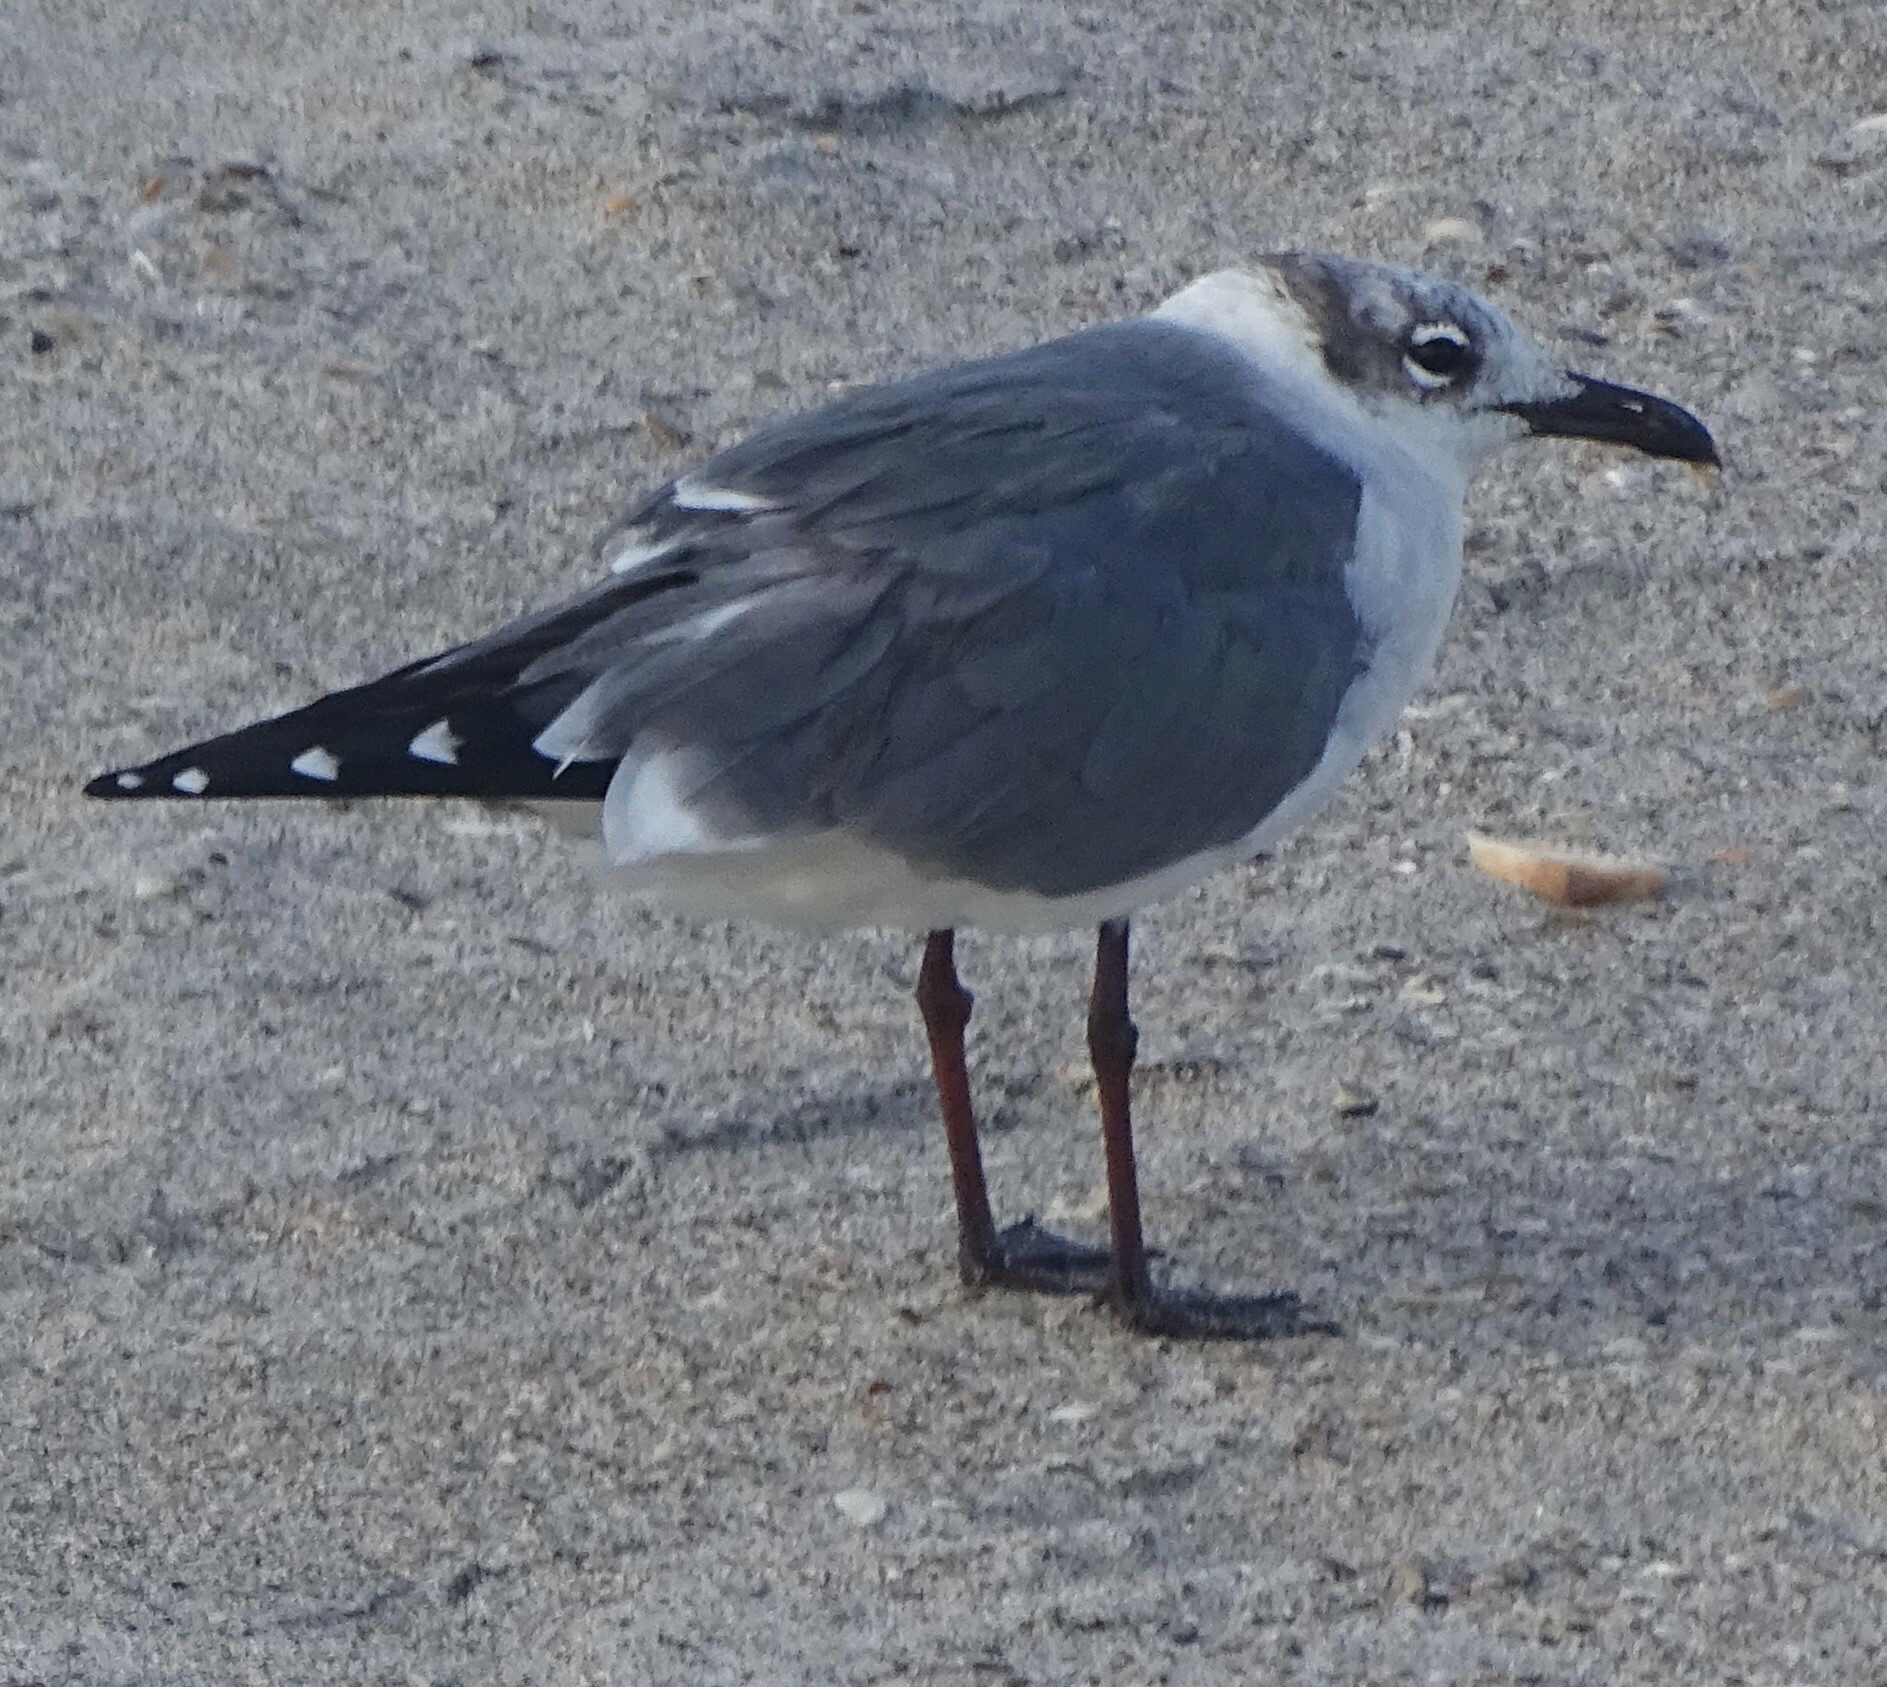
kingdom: Animalia
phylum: Chordata
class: Aves
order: Charadriiformes
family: Laridae
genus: Leucophaeus
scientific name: Leucophaeus atricilla
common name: Laughing gull
